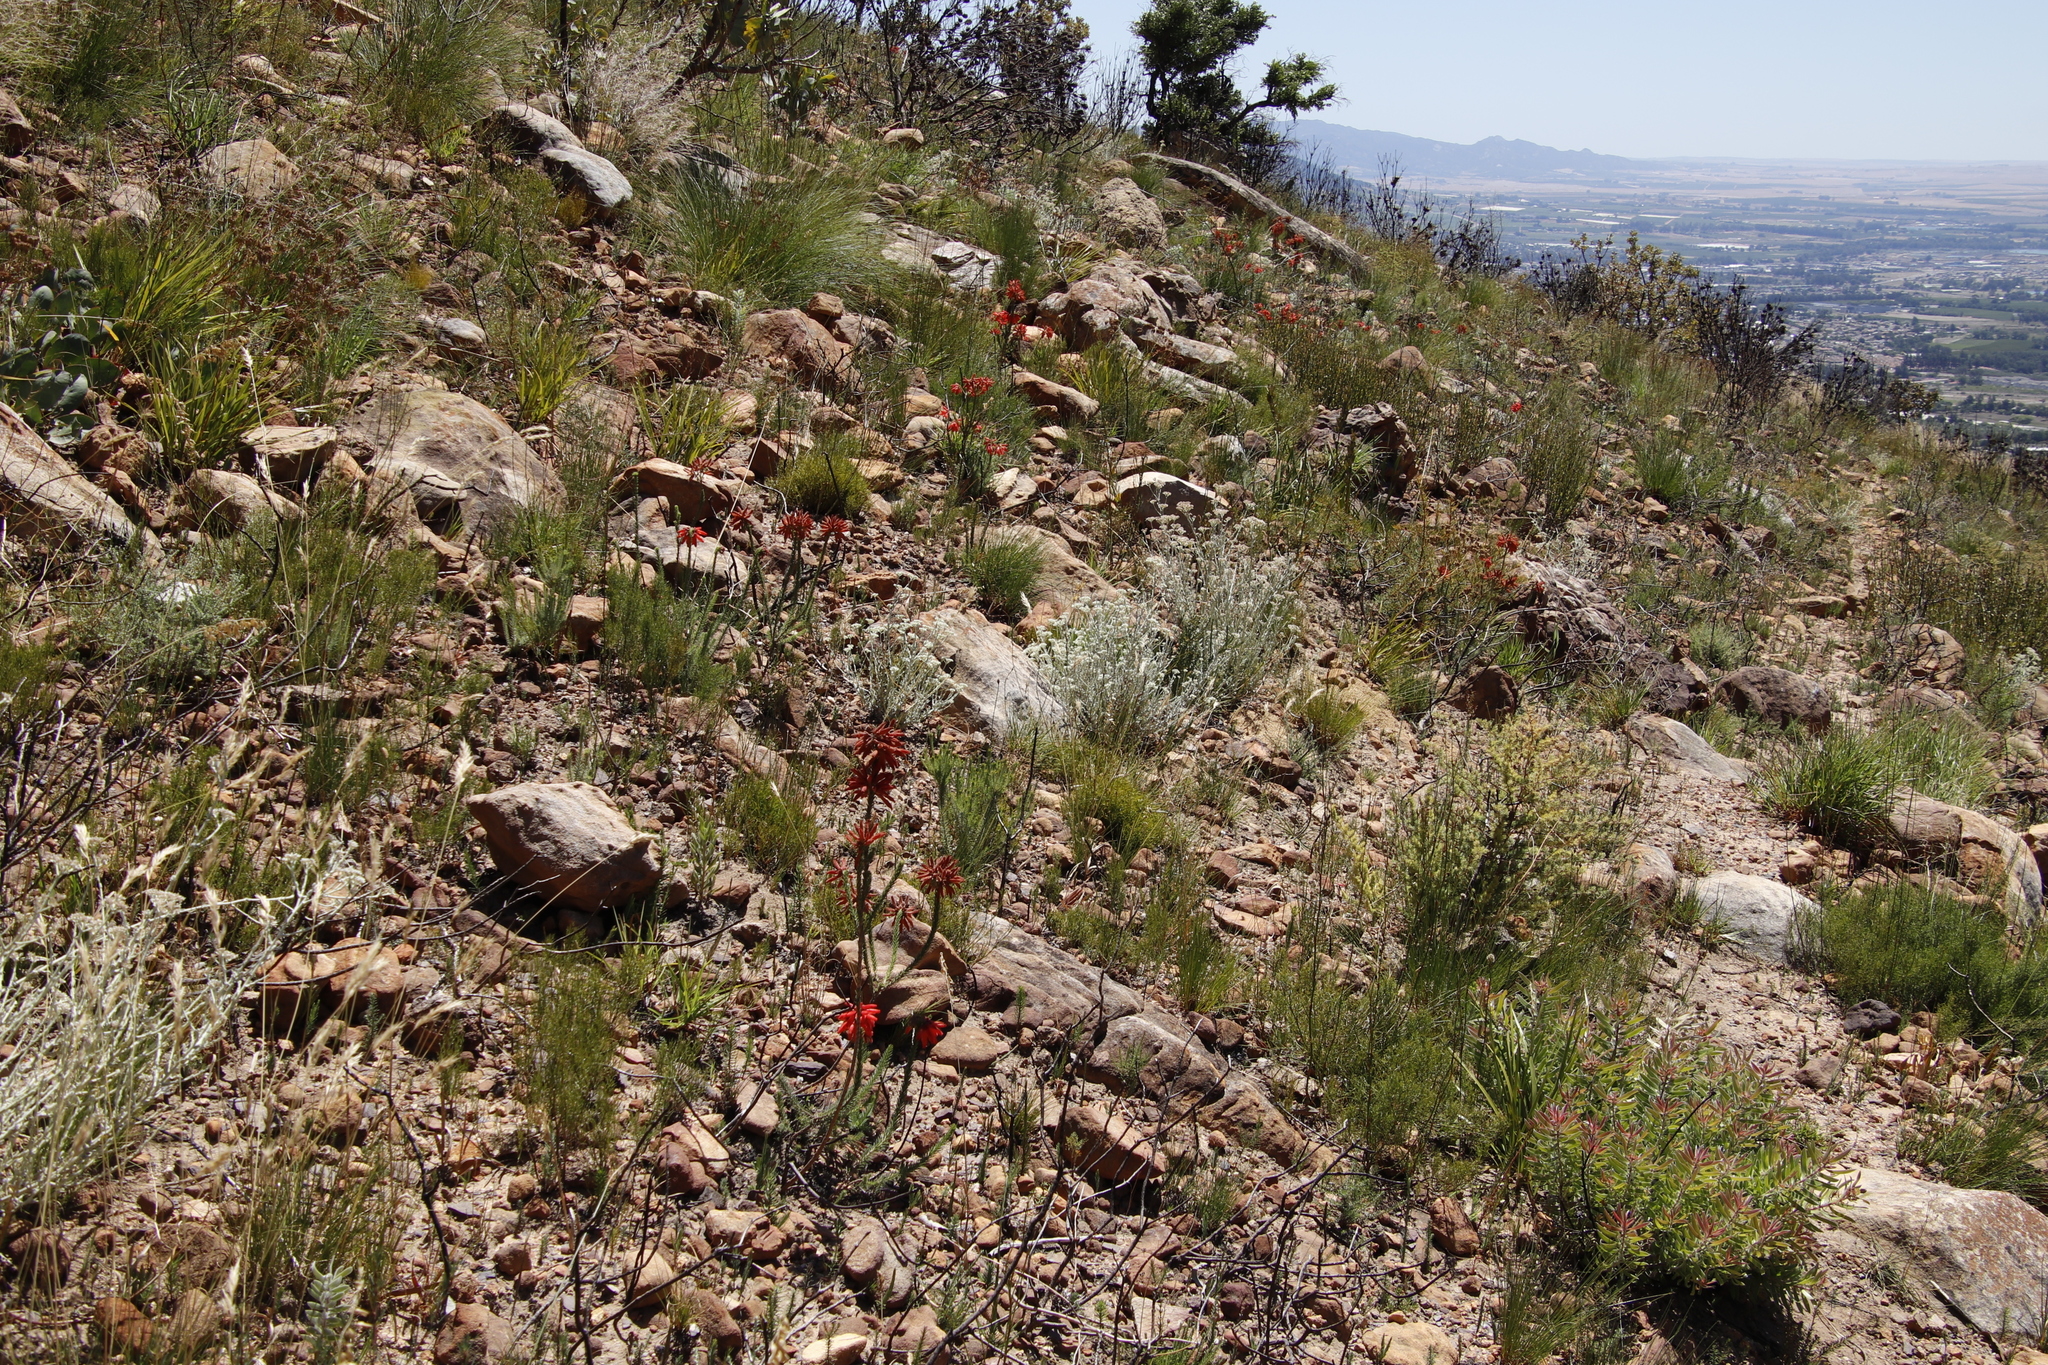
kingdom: Plantae
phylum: Tracheophyta
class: Magnoliopsida
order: Ericales
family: Ericaceae
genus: Erica
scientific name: Erica cerinthoides
